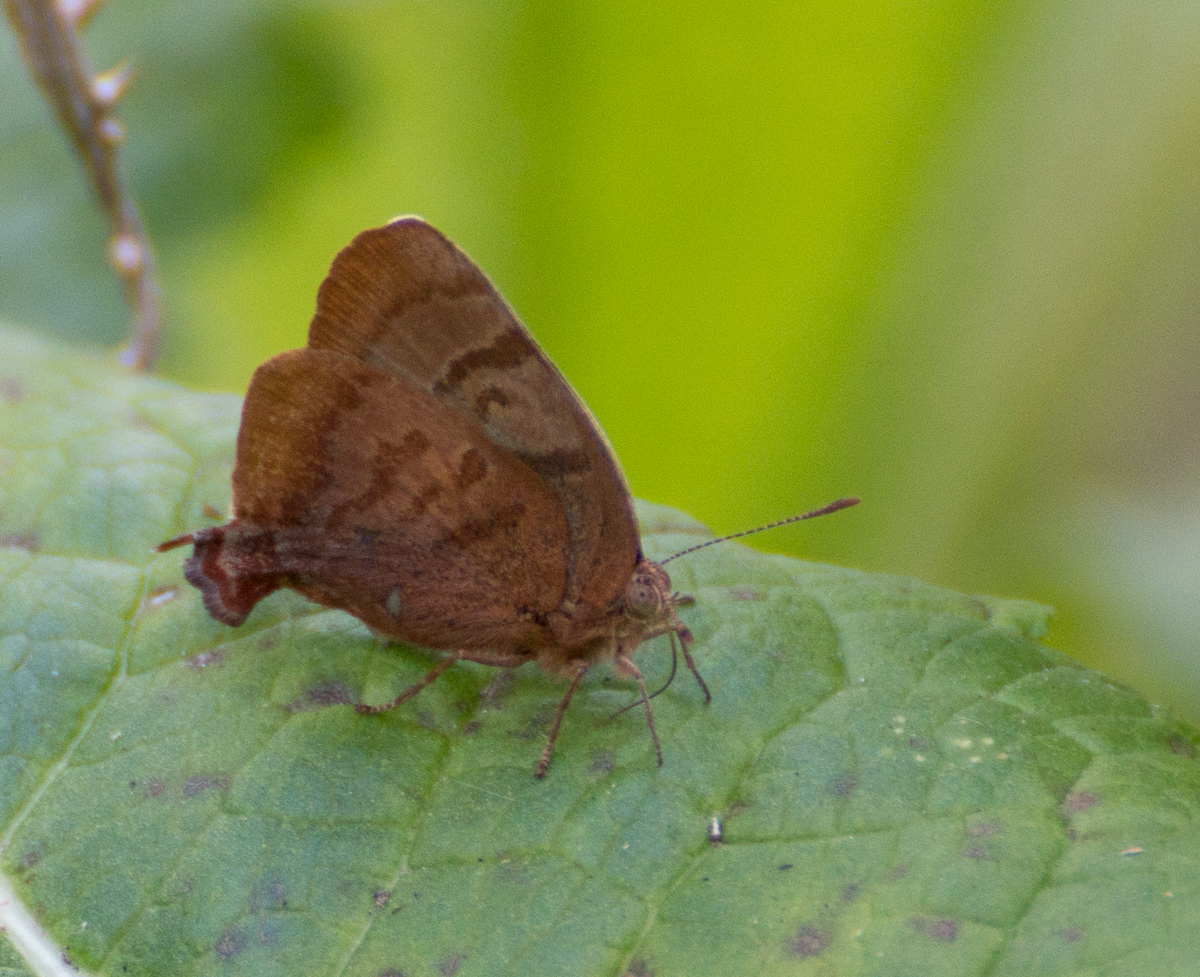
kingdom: Animalia
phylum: Arthropoda
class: Insecta
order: Lepidoptera
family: Lycaenidae
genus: Thecla
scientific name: Thecla marius
